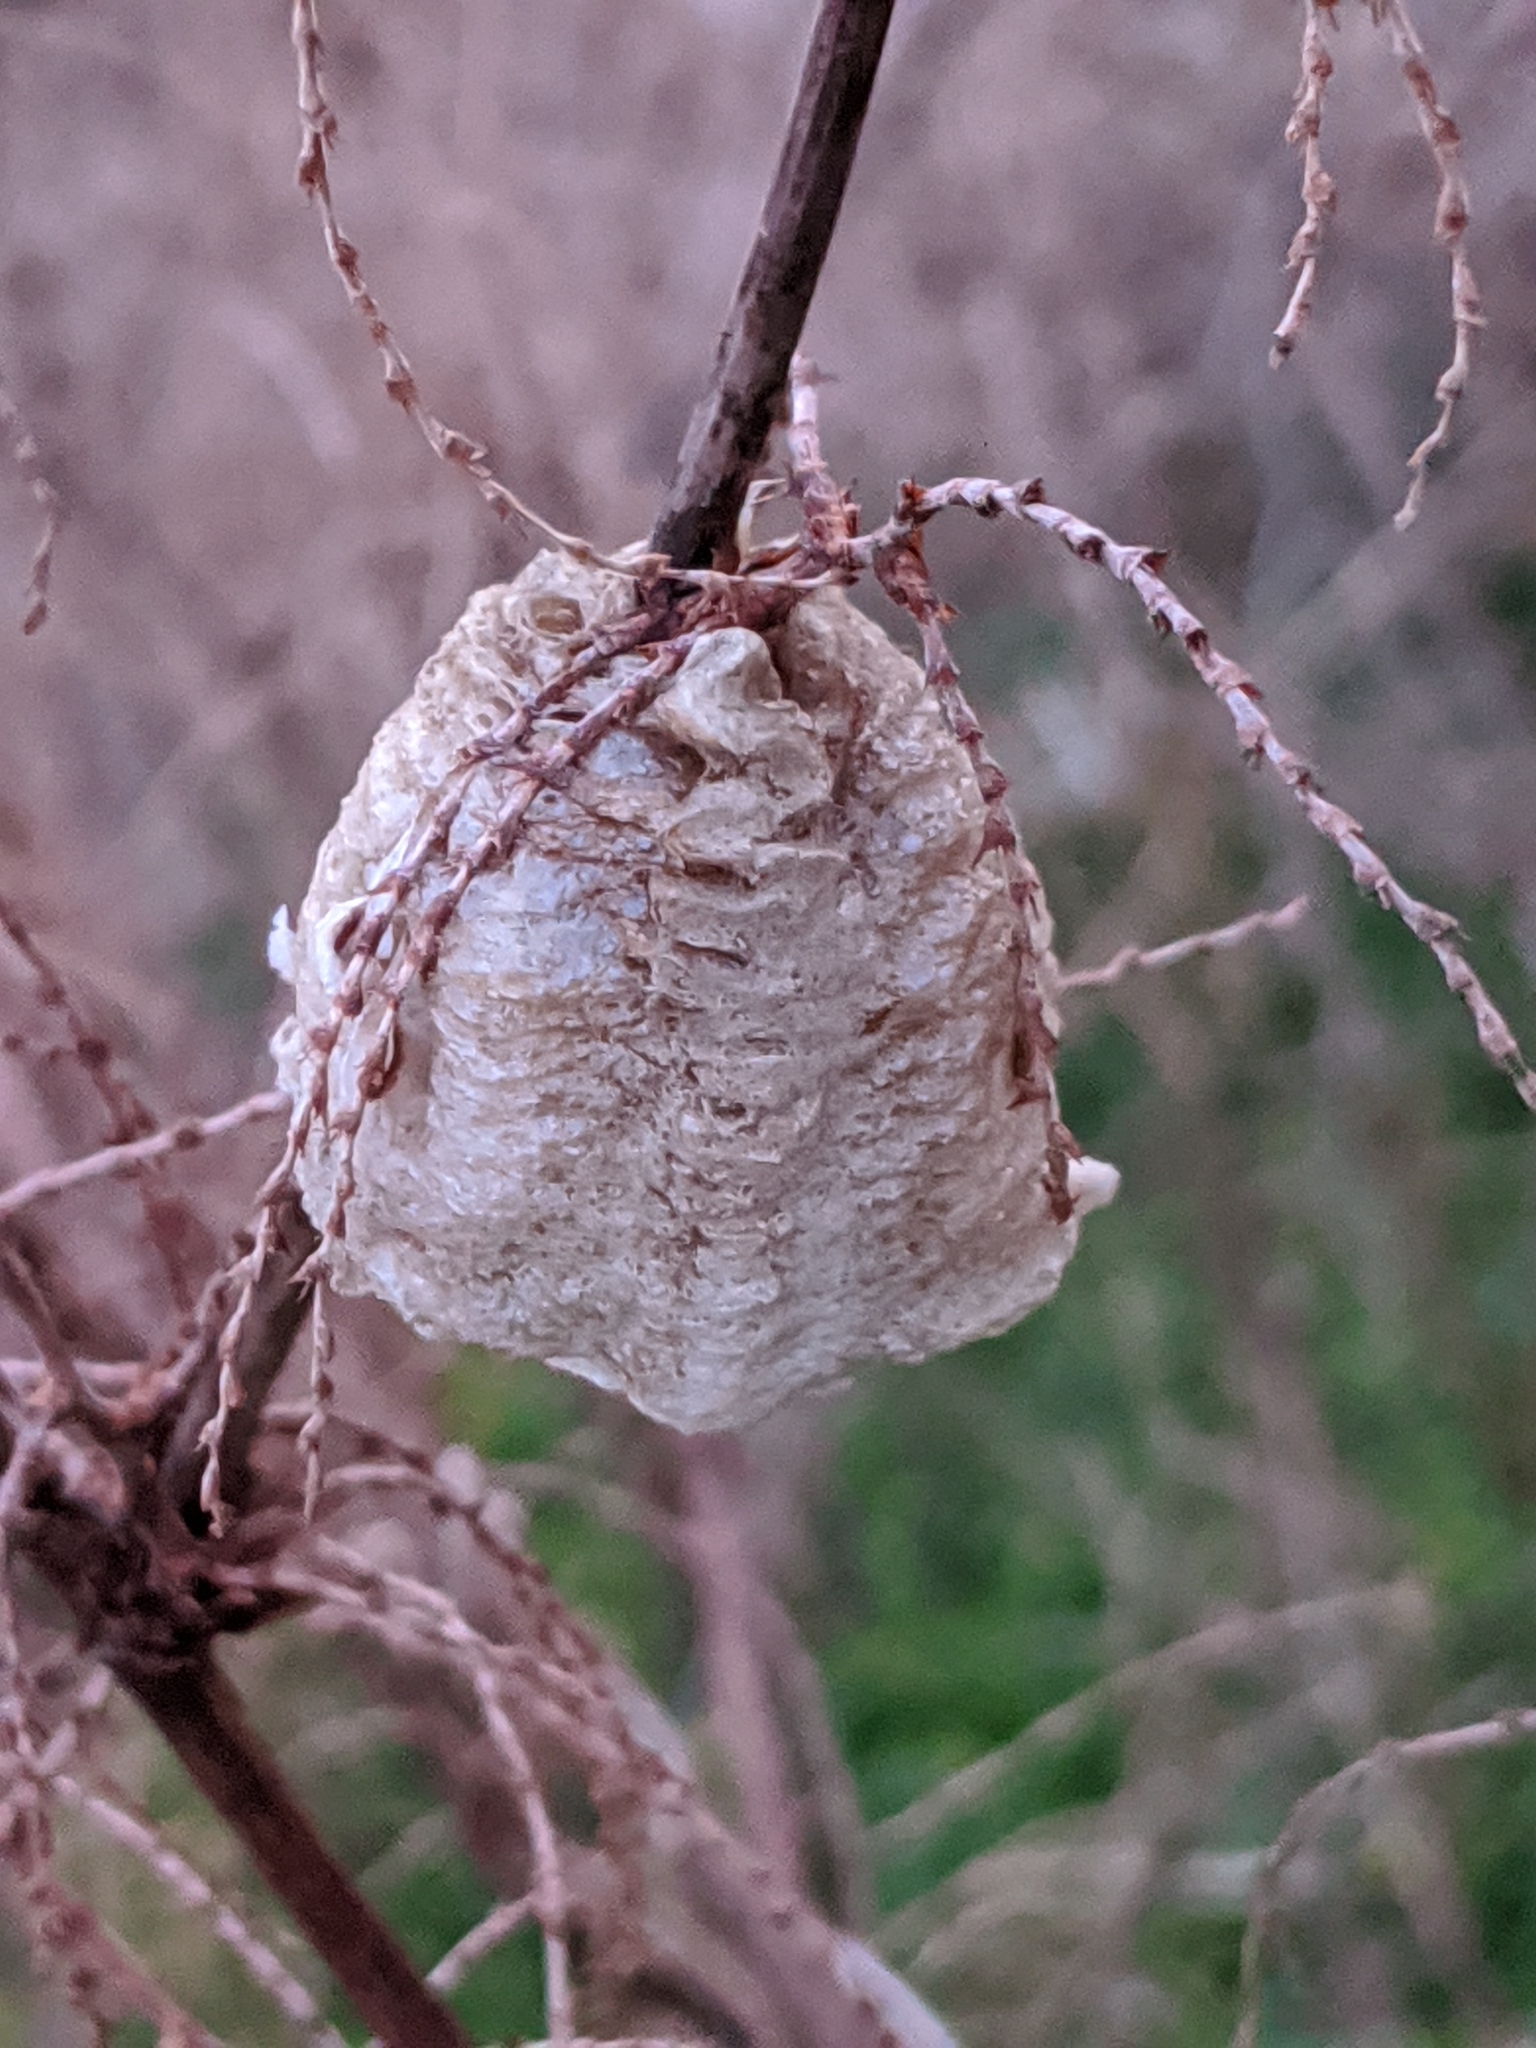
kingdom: Animalia
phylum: Arthropoda
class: Insecta
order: Mantodea
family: Mantidae
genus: Tenodera
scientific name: Tenodera sinensis
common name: Chinese mantis
